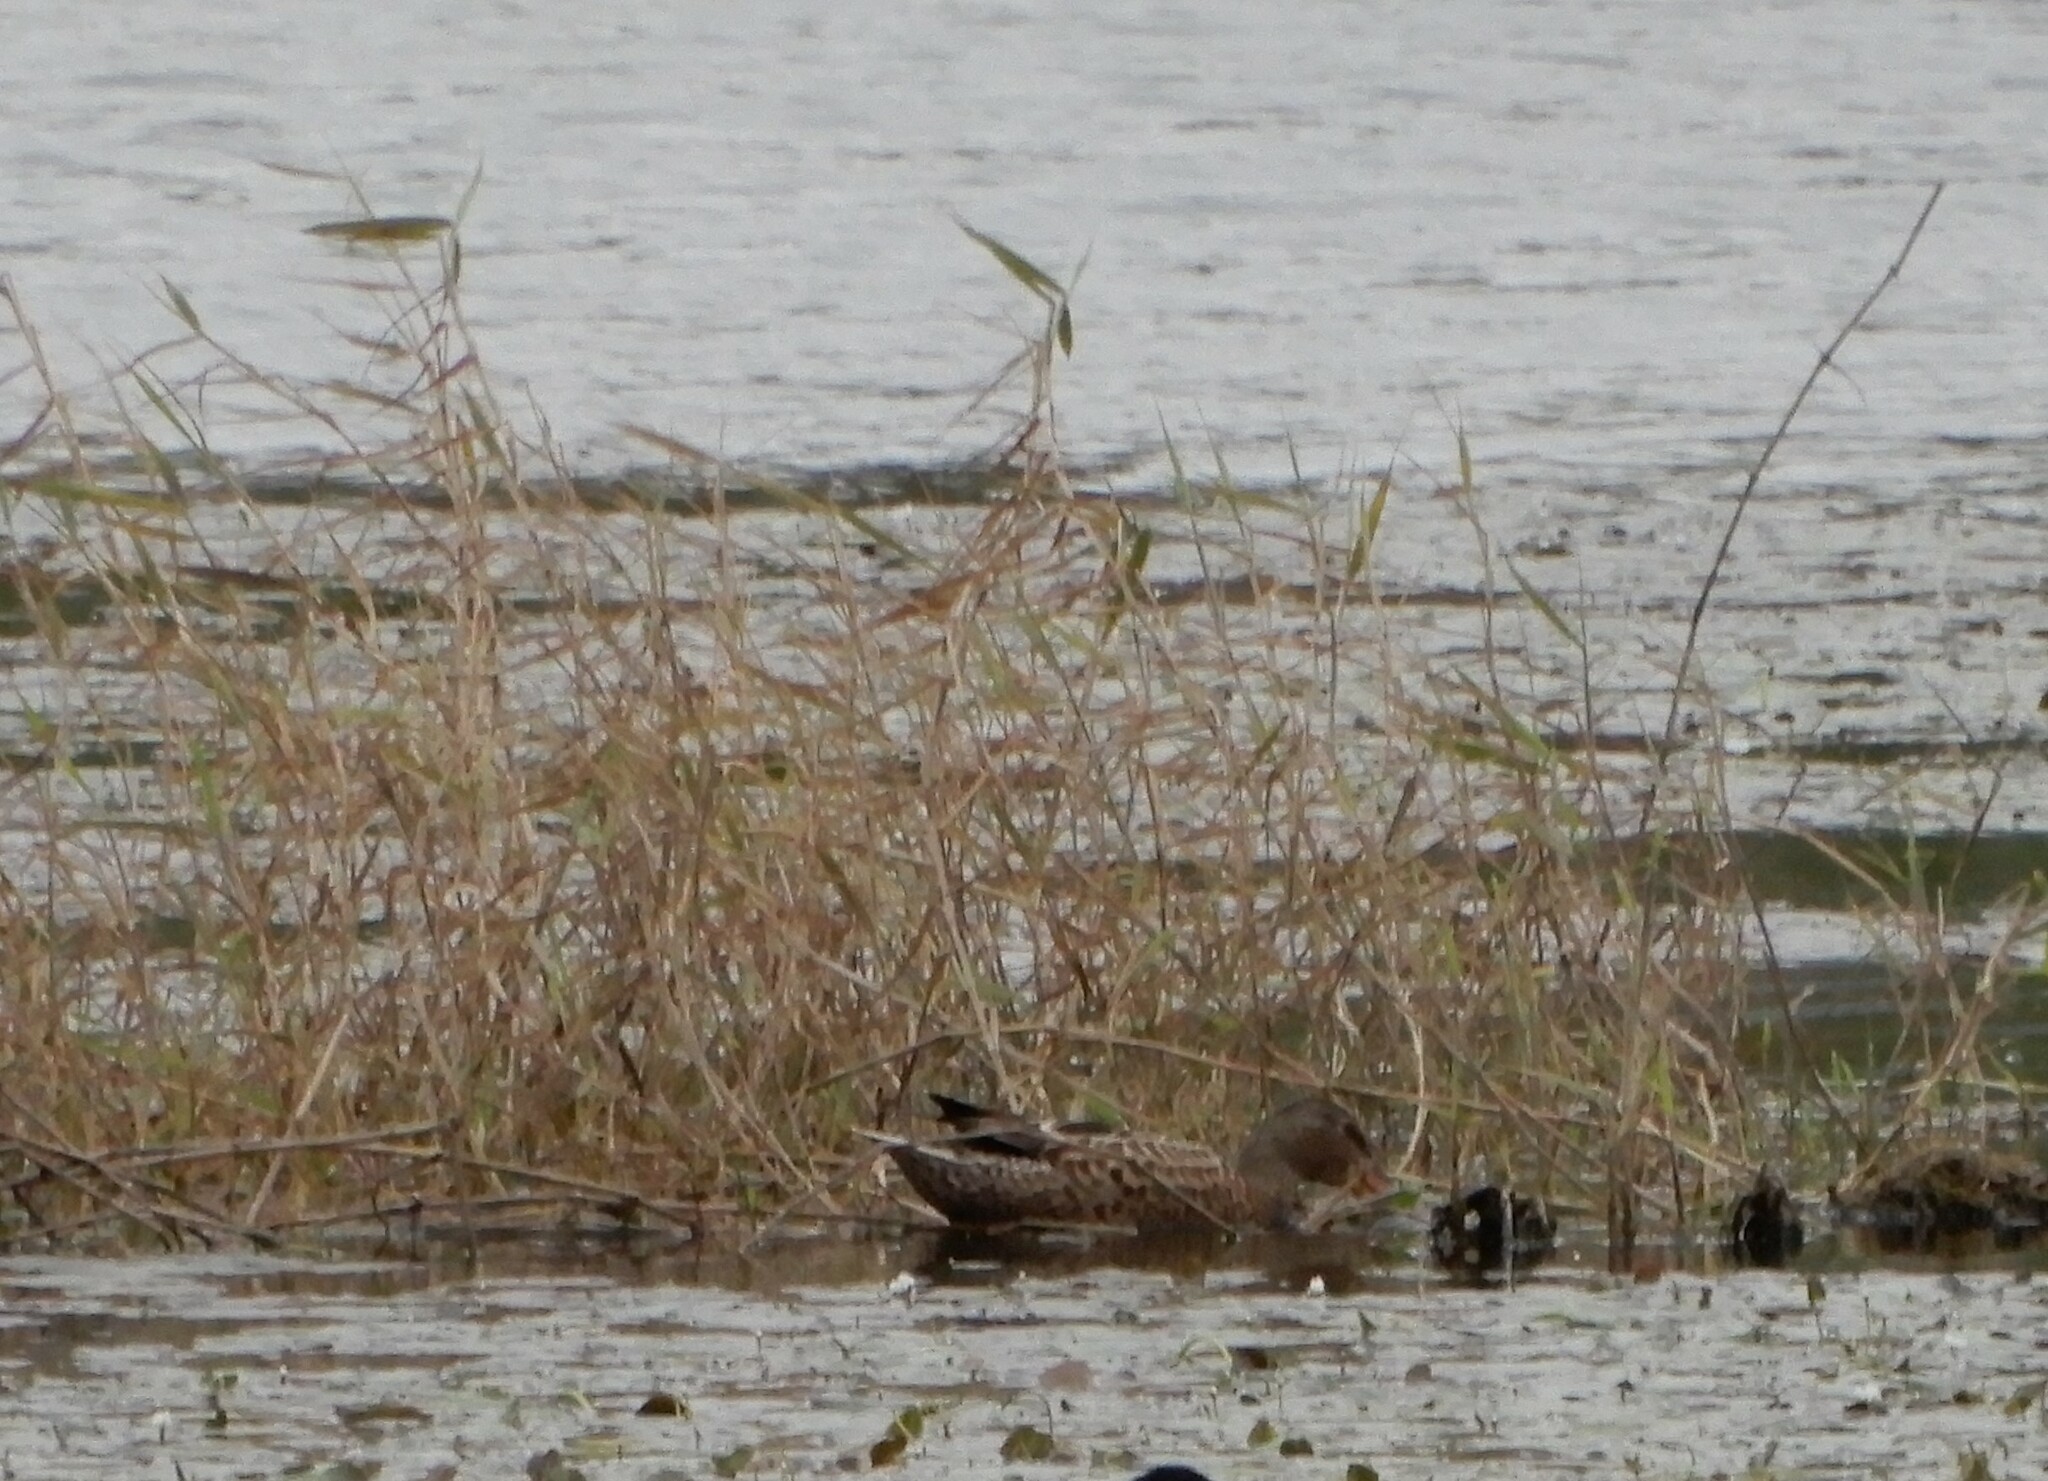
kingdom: Animalia
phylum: Chordata
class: Aves
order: Anseriformes
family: Anatidae
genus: Spatula
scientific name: Spatula clypeata
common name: Northern shoveler
